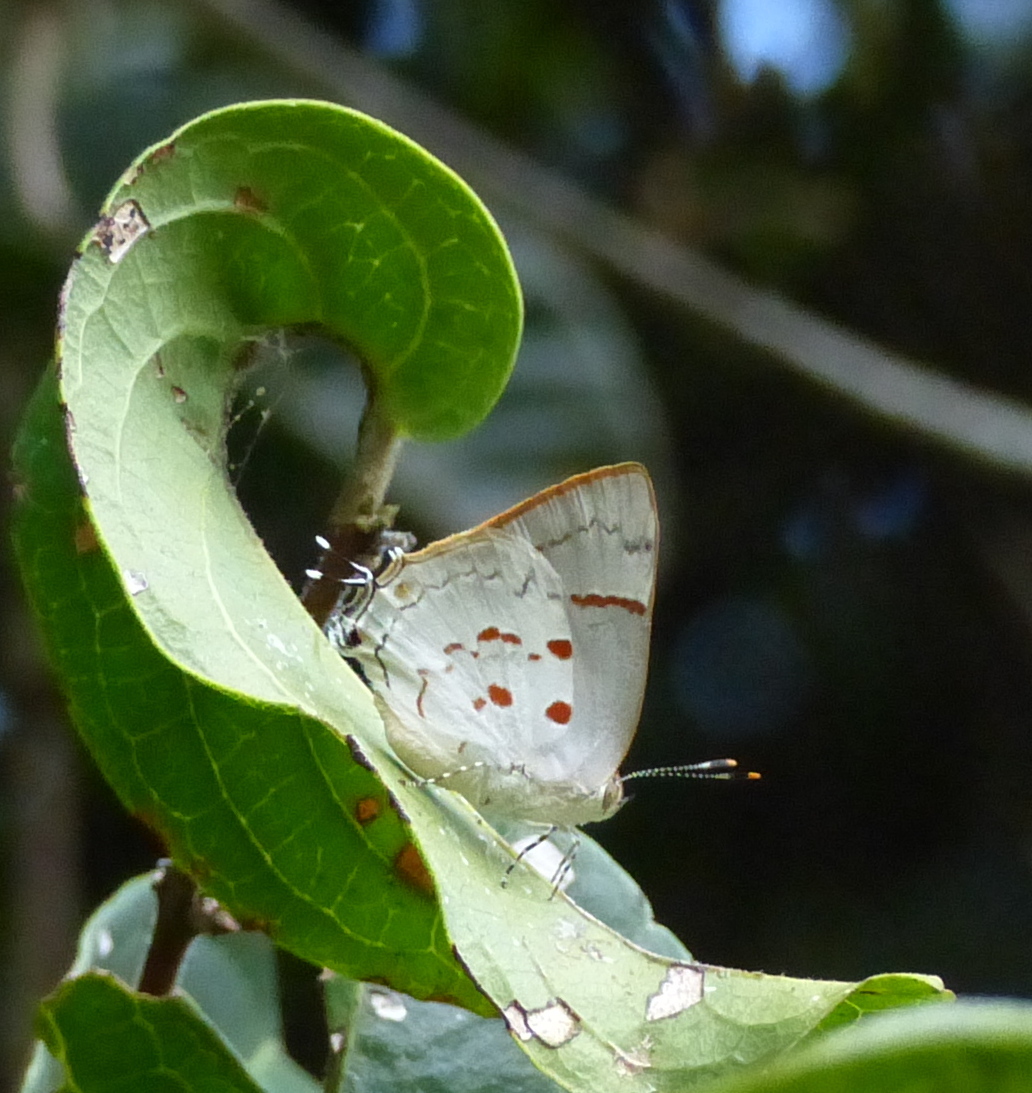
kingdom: Animalia
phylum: Arthropoda
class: Insecta
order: Lepidoptera
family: Lycaenidae
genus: Tmolus
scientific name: Tmolus echion
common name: Red-spotted hairstreak
